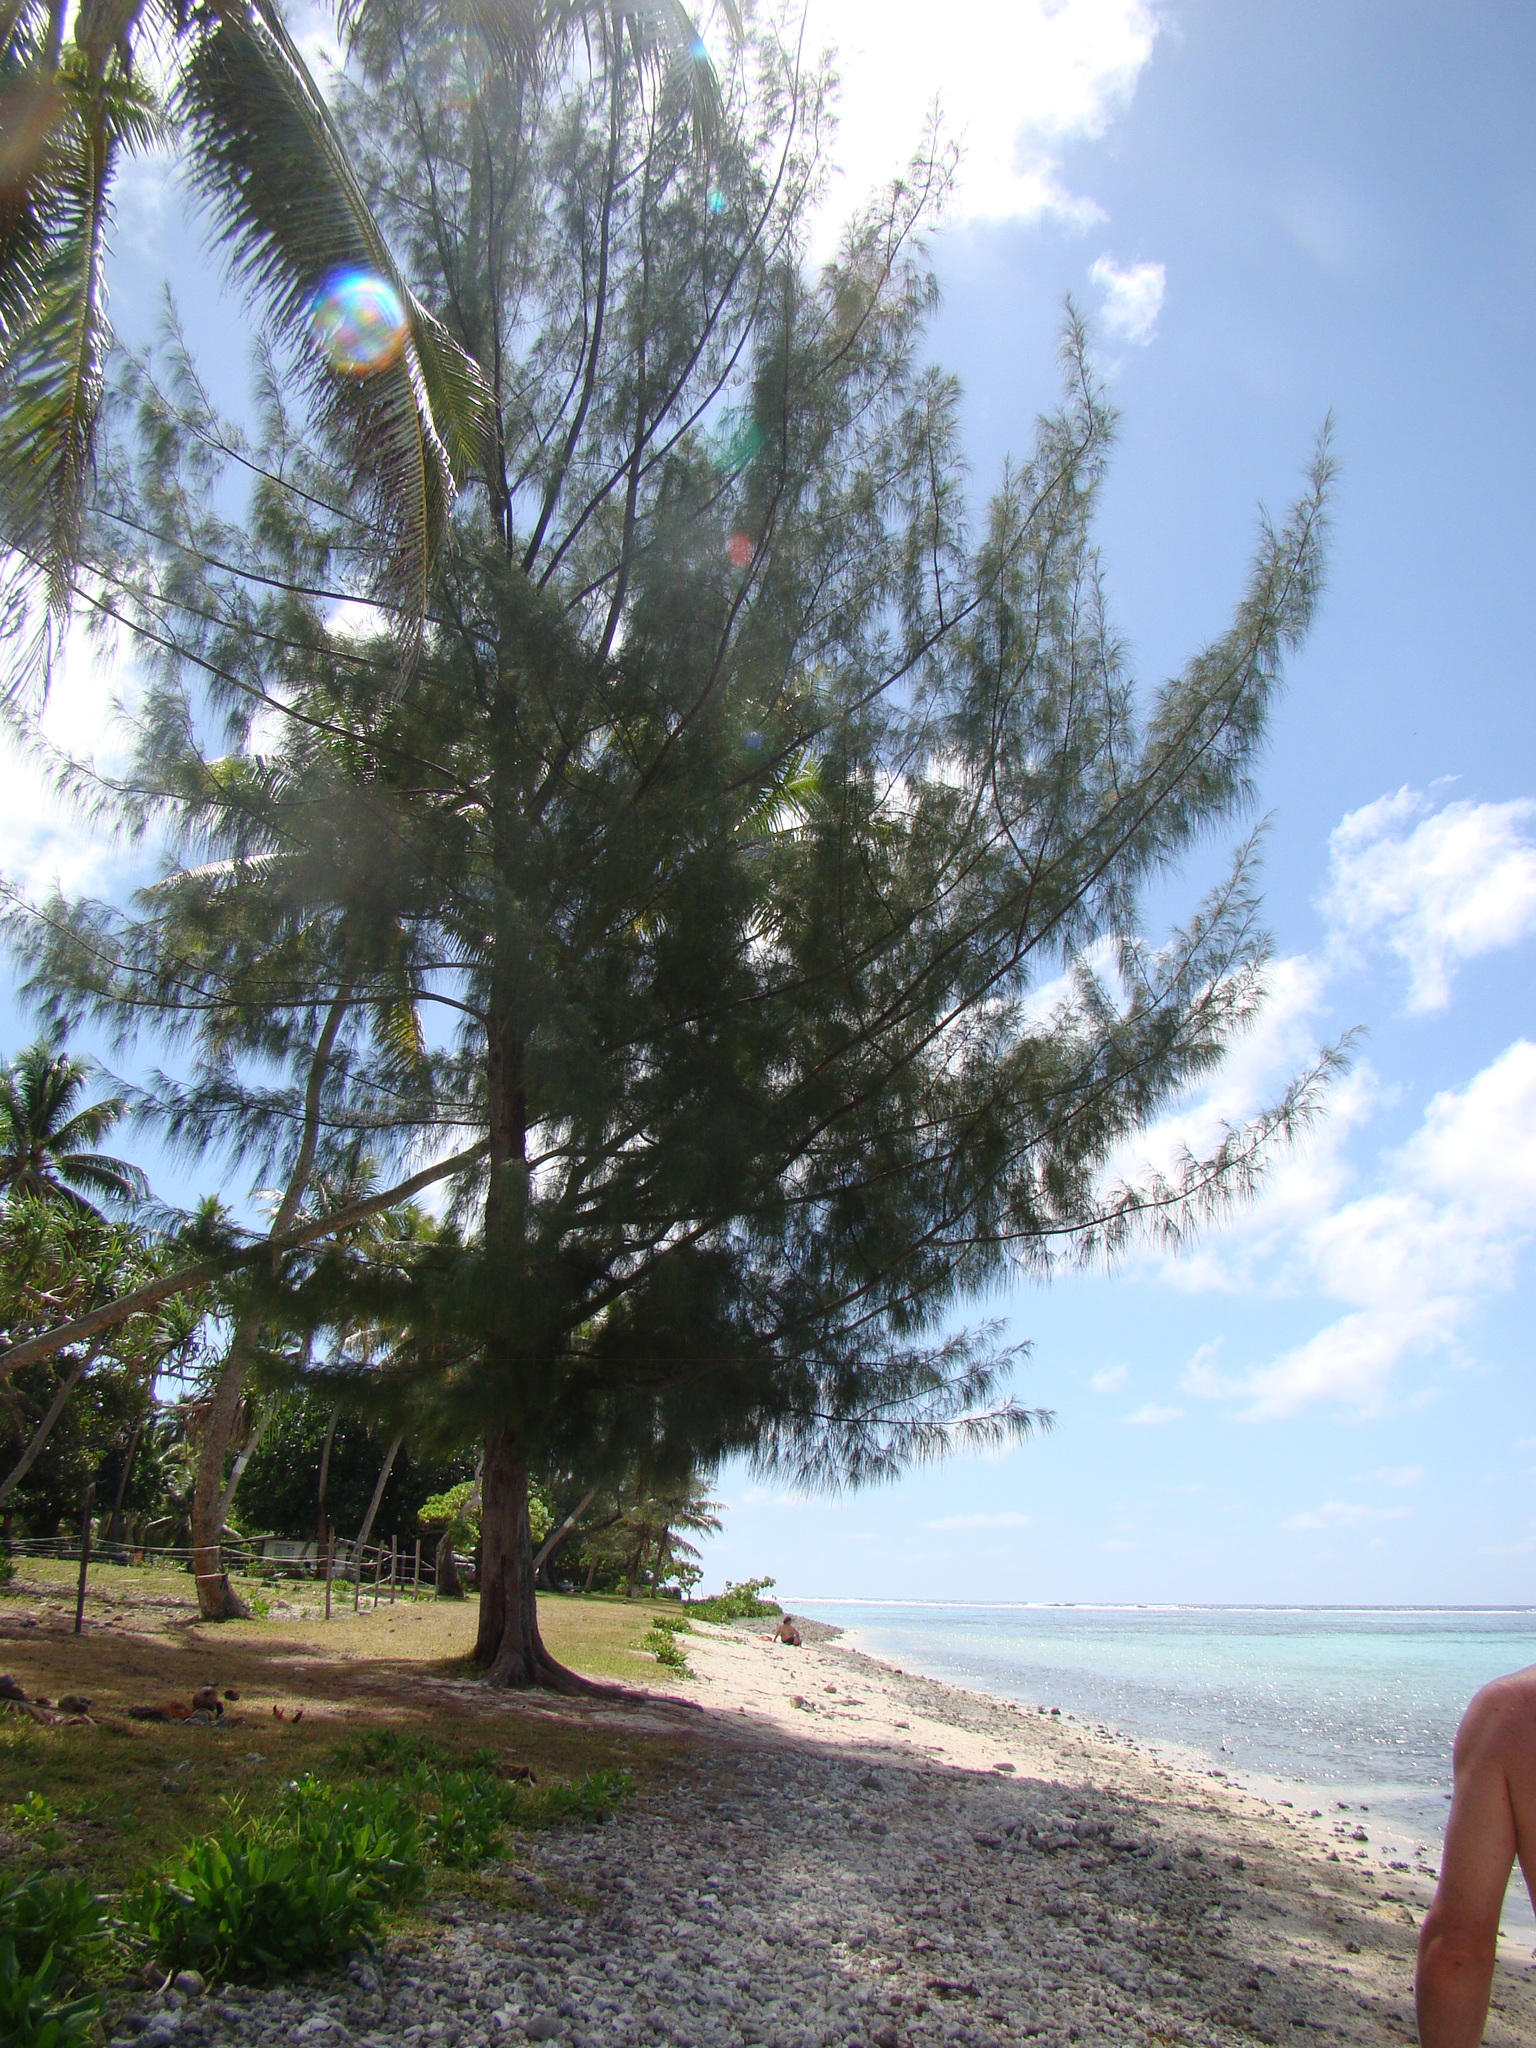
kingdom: Plantae
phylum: Tracheophyta
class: Magnoliopsida
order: Fagales
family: Casuarinaceae
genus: Casuarina
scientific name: Casuarina equisetifolia
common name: Beach sheoak
